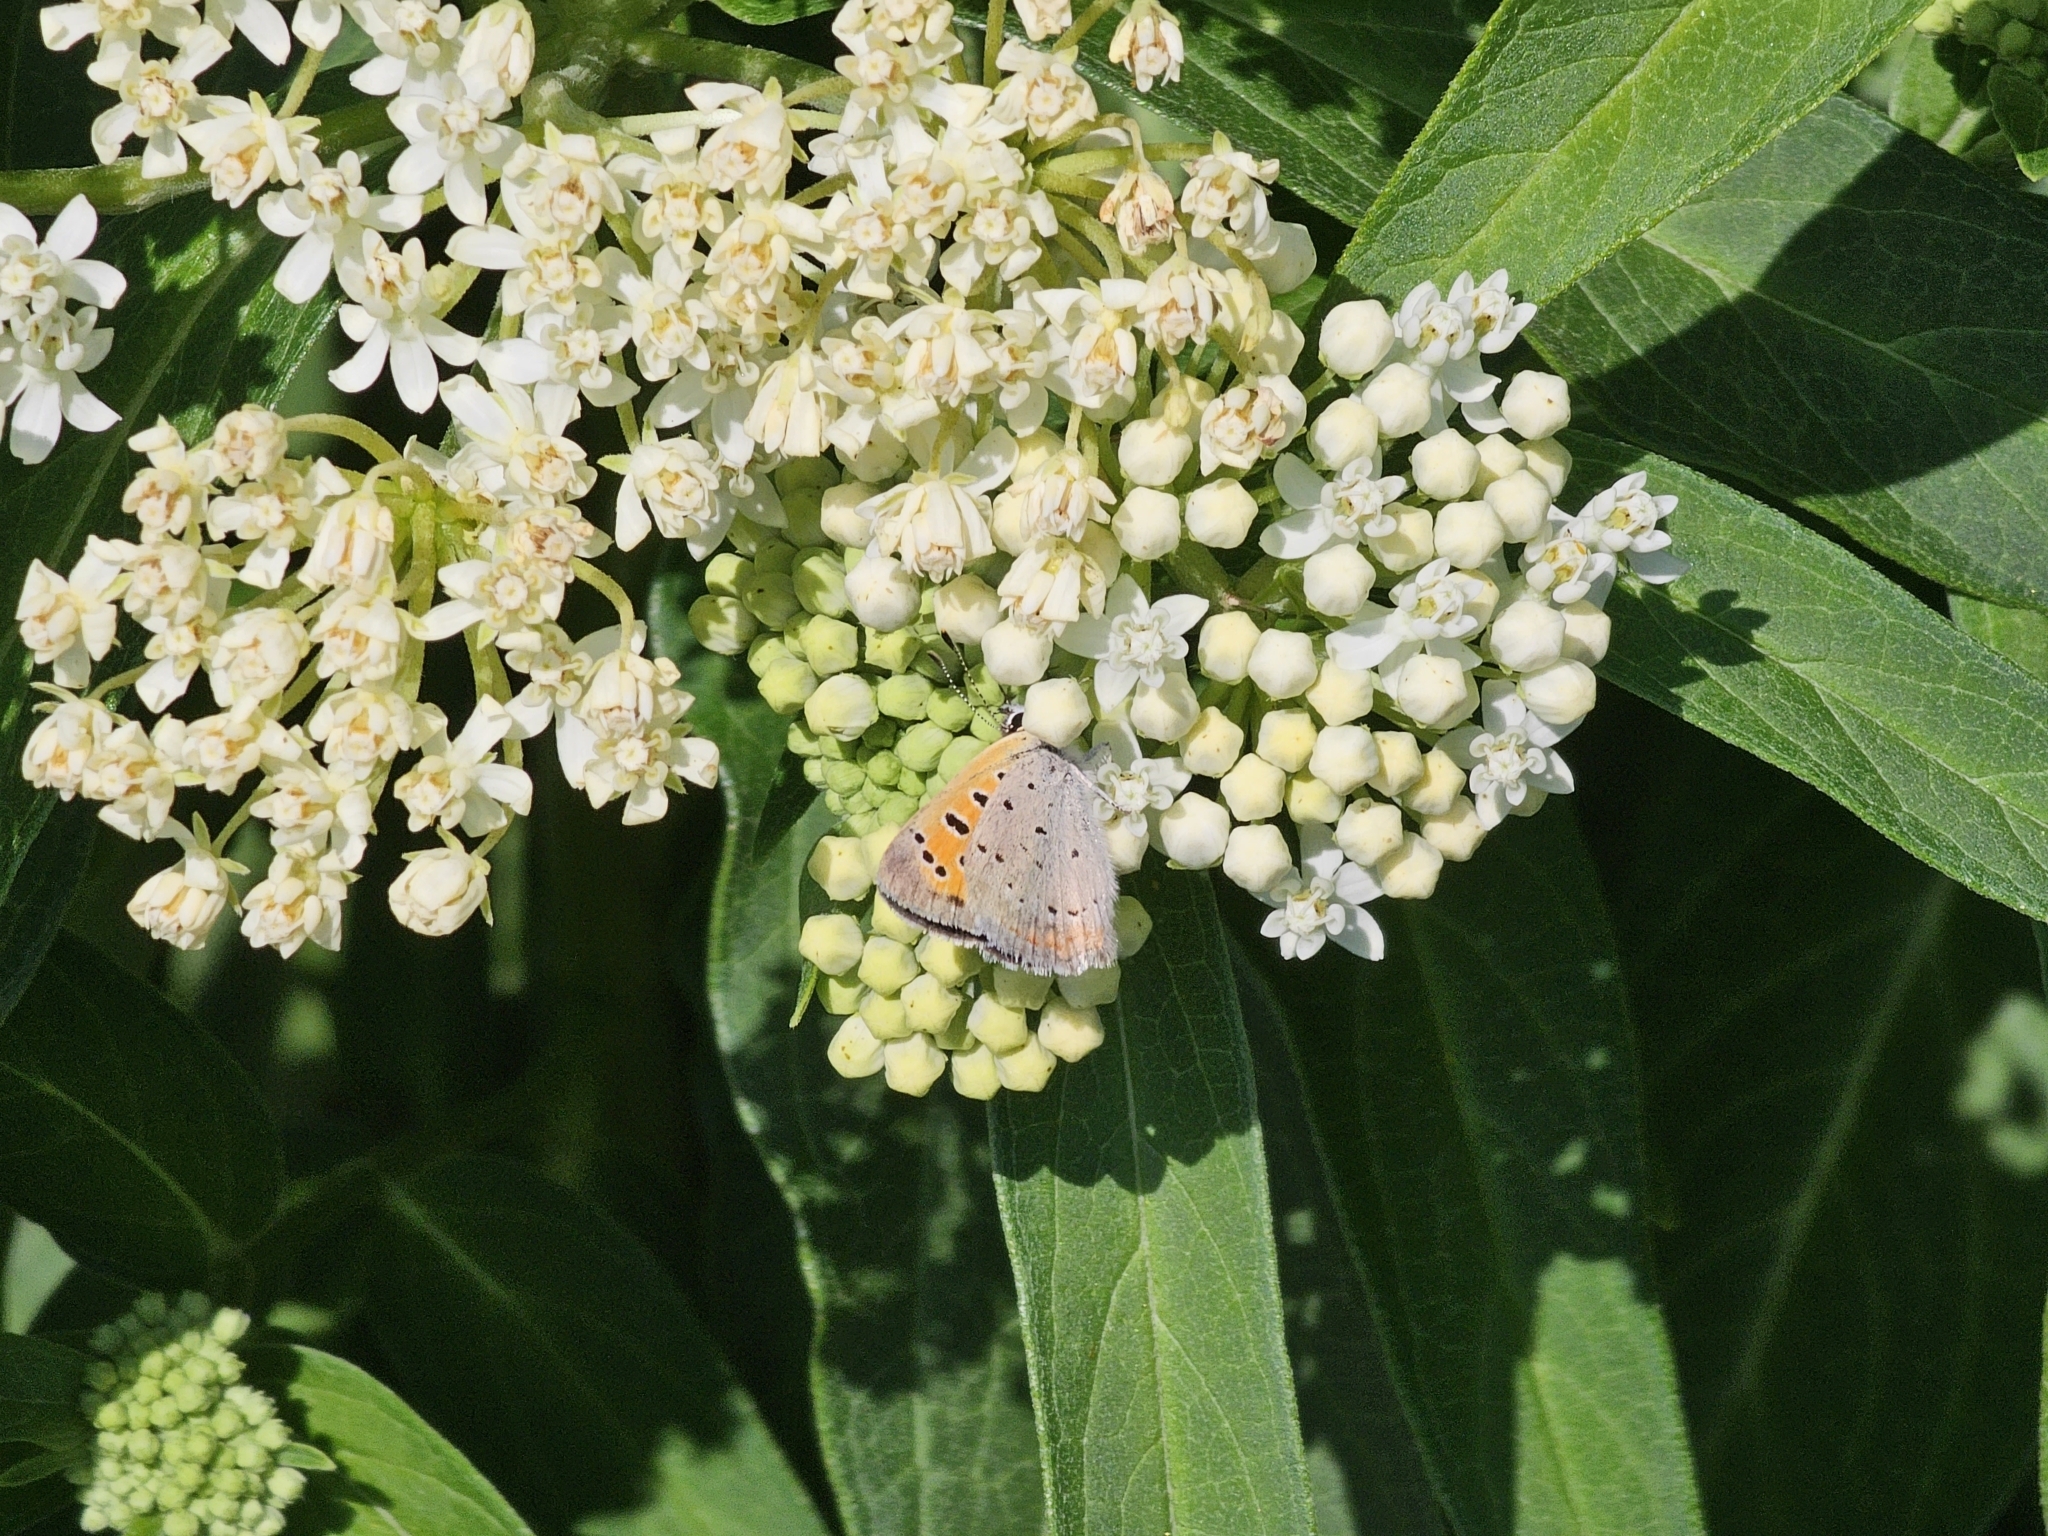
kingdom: Animalia
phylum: Arthropoda
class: Insecta
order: Lepidoptera
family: Lycaenidae
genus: Lycaena
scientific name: Lycaena hypophlaeas
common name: American copper
